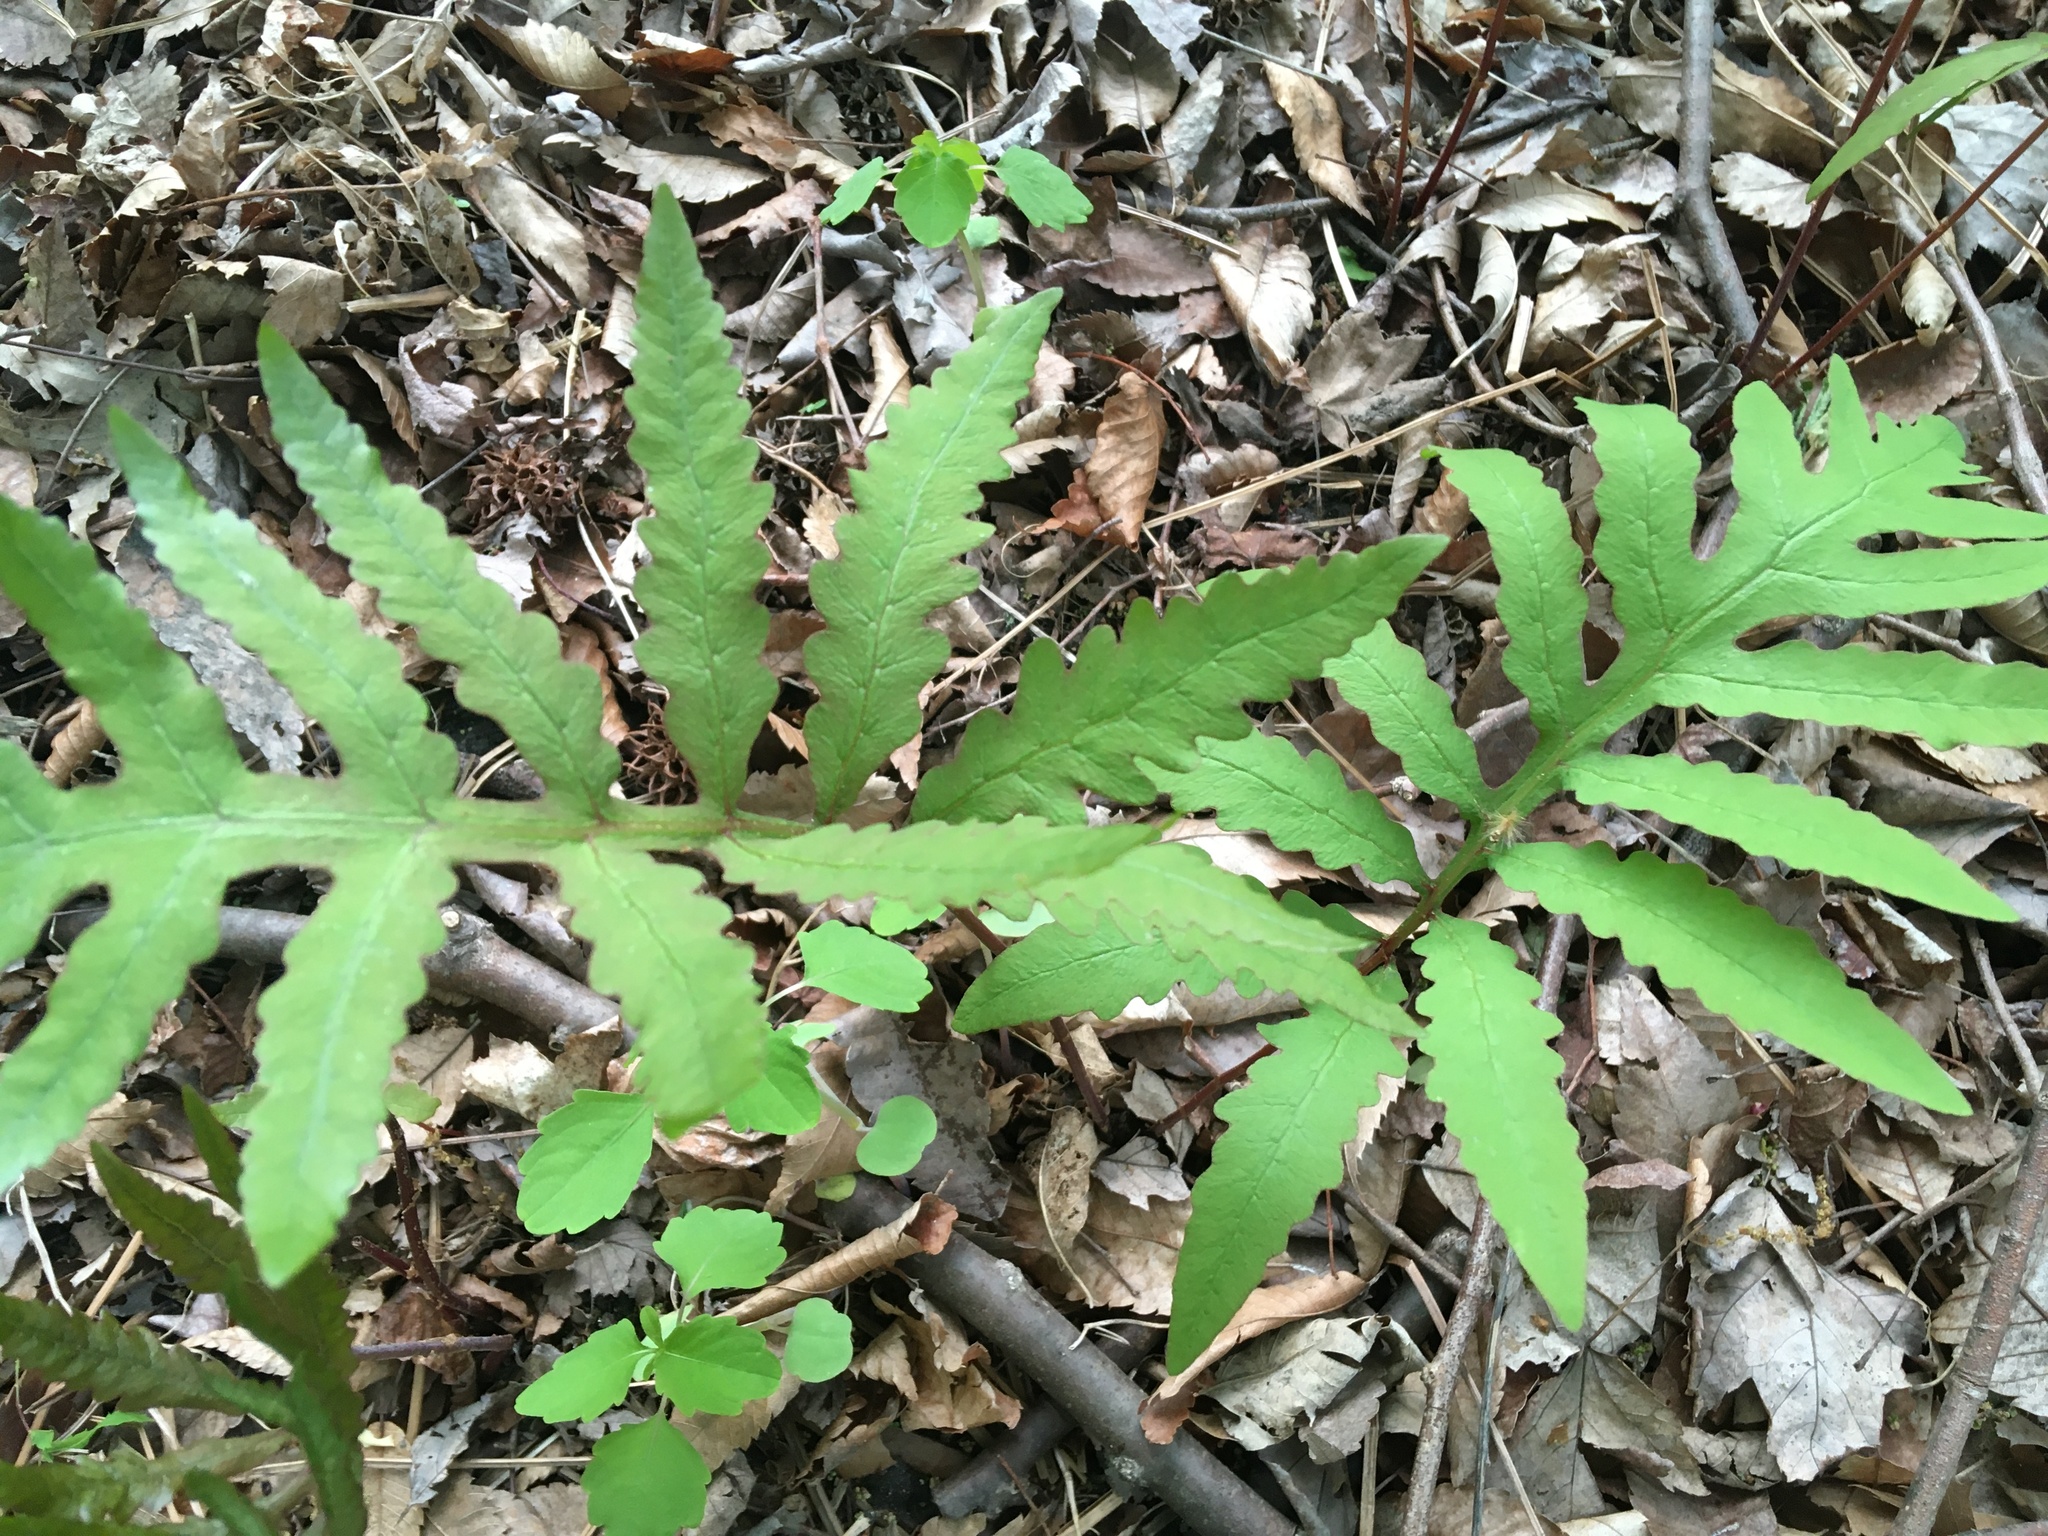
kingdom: Plantae
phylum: Tracheophyta
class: Polypodiopsida
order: Polypodiales
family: Onocleaceae
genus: Onoclea
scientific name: Onoclea sensibilis
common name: Sensitive fern
